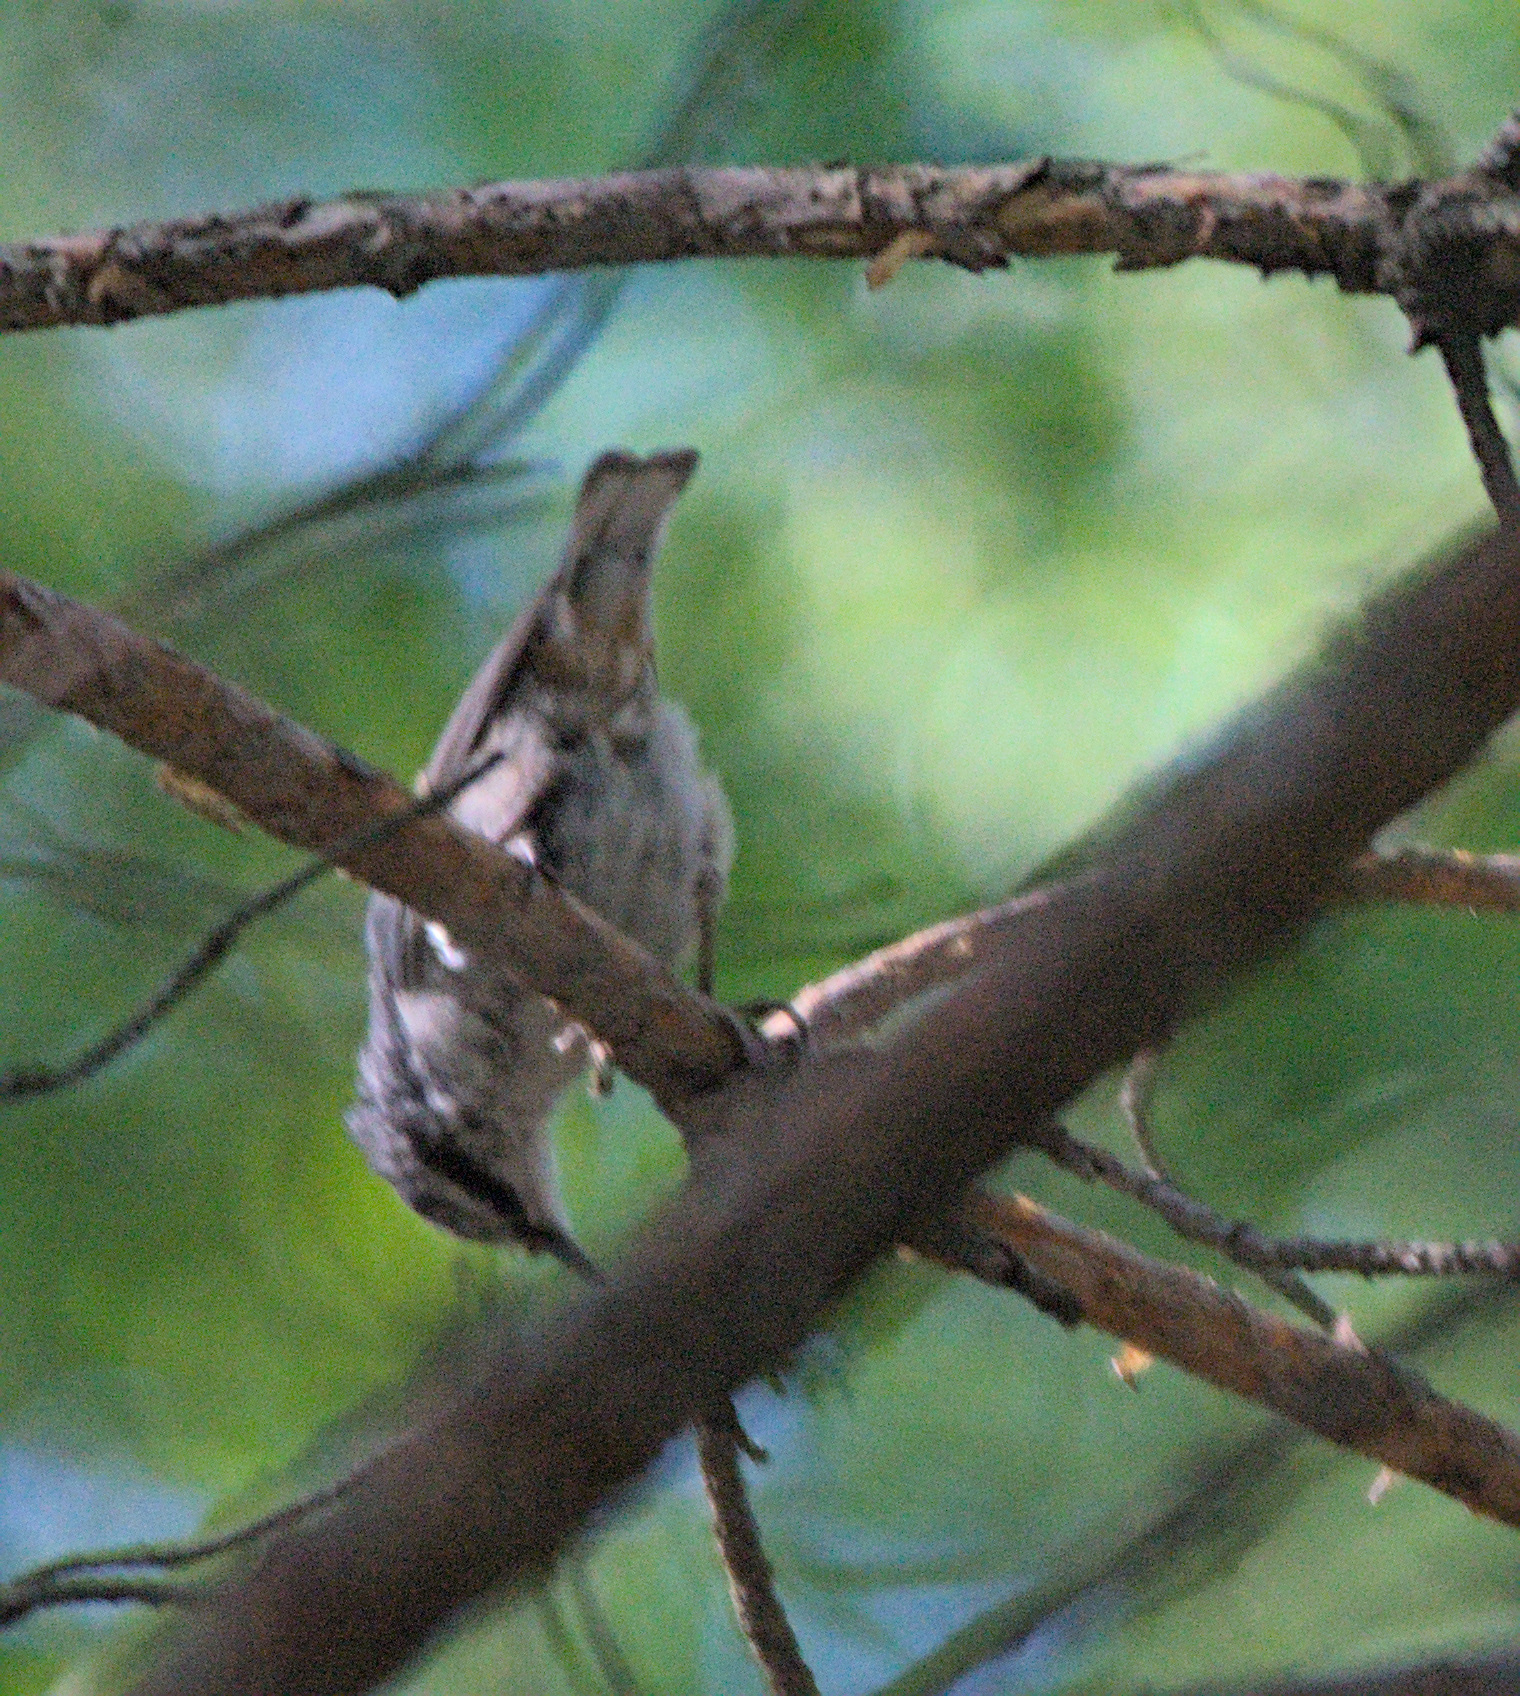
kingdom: Animalia
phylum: Chordata
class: Aves
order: Passeriformes
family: Sittidae
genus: Sitta
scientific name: Sitta europaea
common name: Eurasian nuthatch
